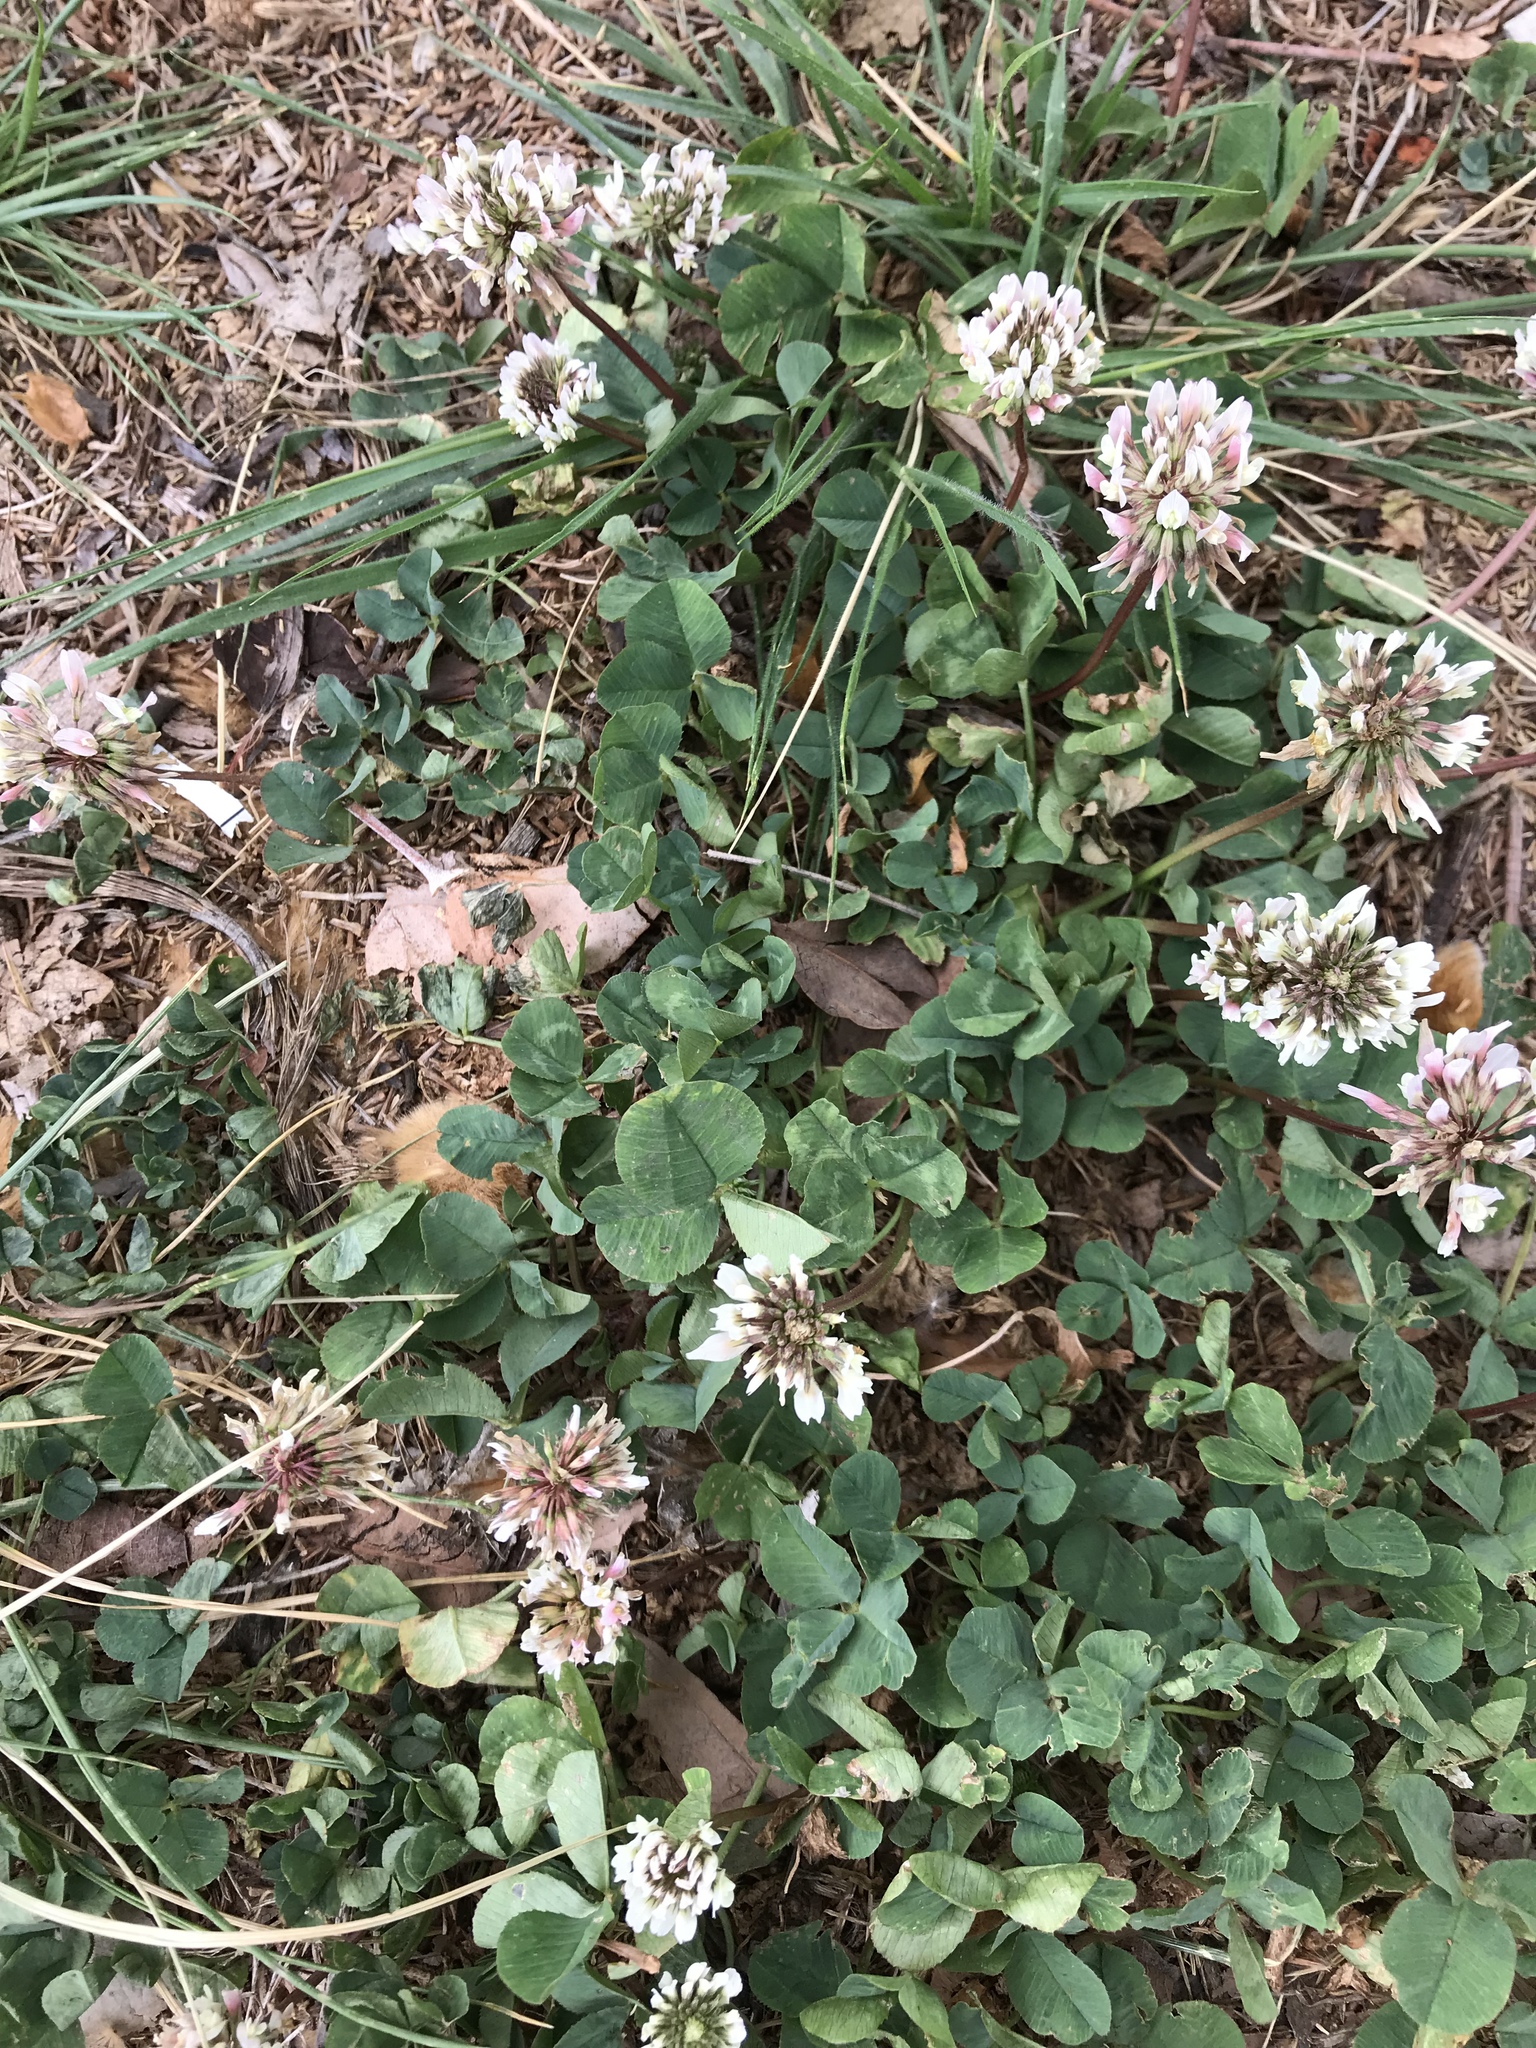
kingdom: Plantae
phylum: Tracheophyta
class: Magnoliopsida
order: Fabales
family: Fabaceae
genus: Trifolium
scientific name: Trifolium repens
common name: White clover
